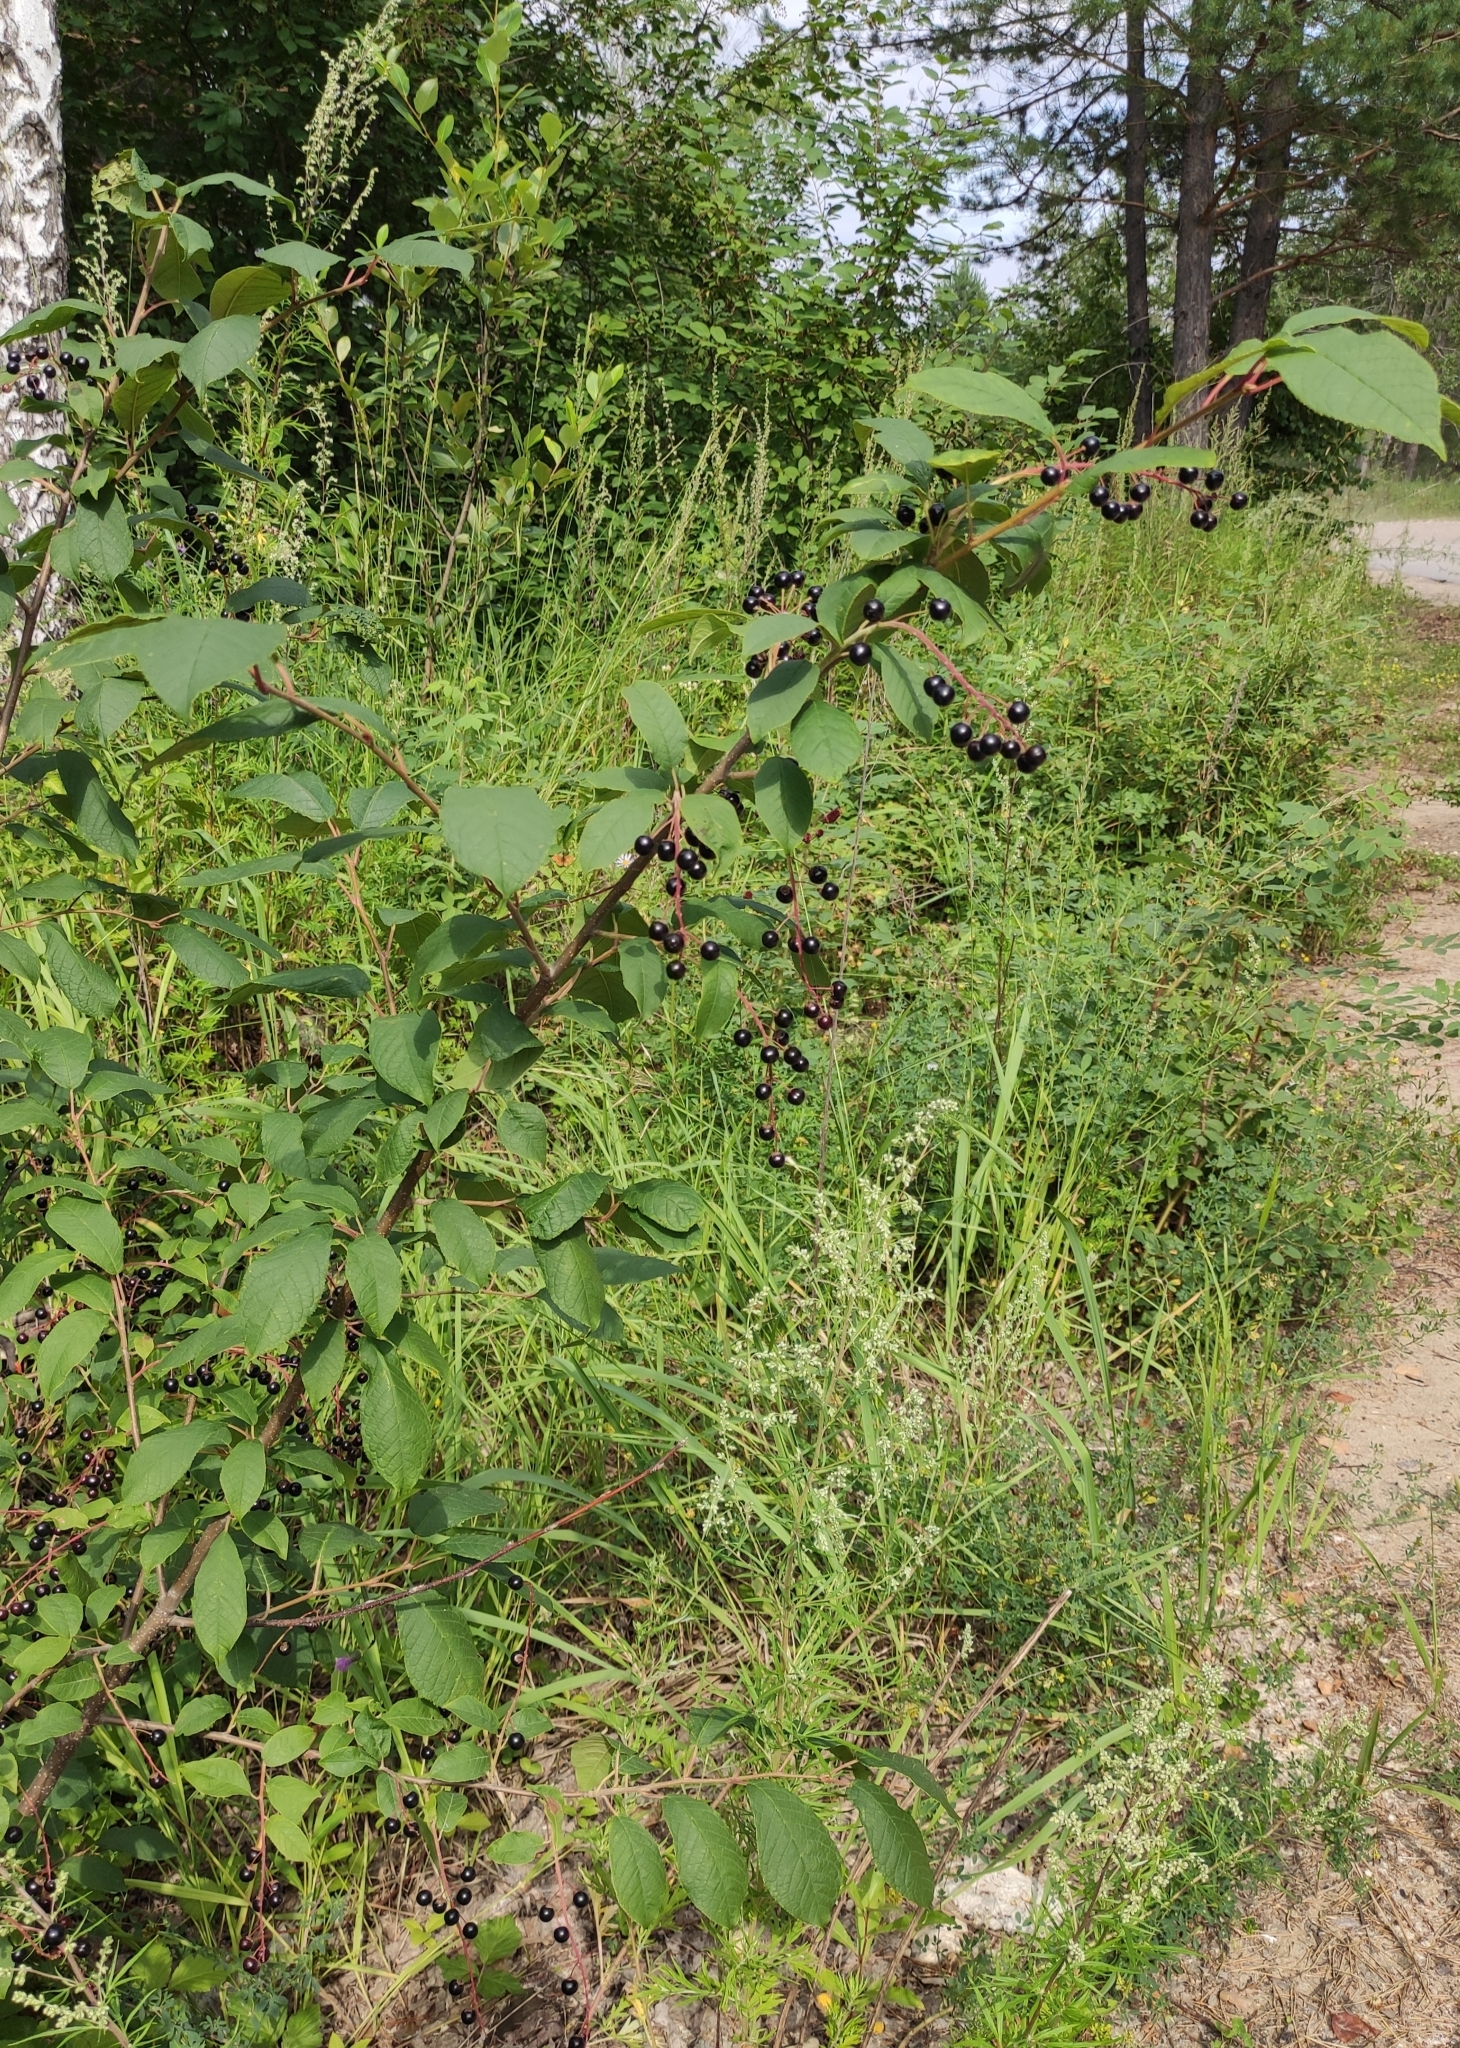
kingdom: Plantae
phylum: Tracheophyta
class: Magnoliopsida
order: Rosales
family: Rosaceae
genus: Prunus
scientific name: Prunus padus
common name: Bird cherry
